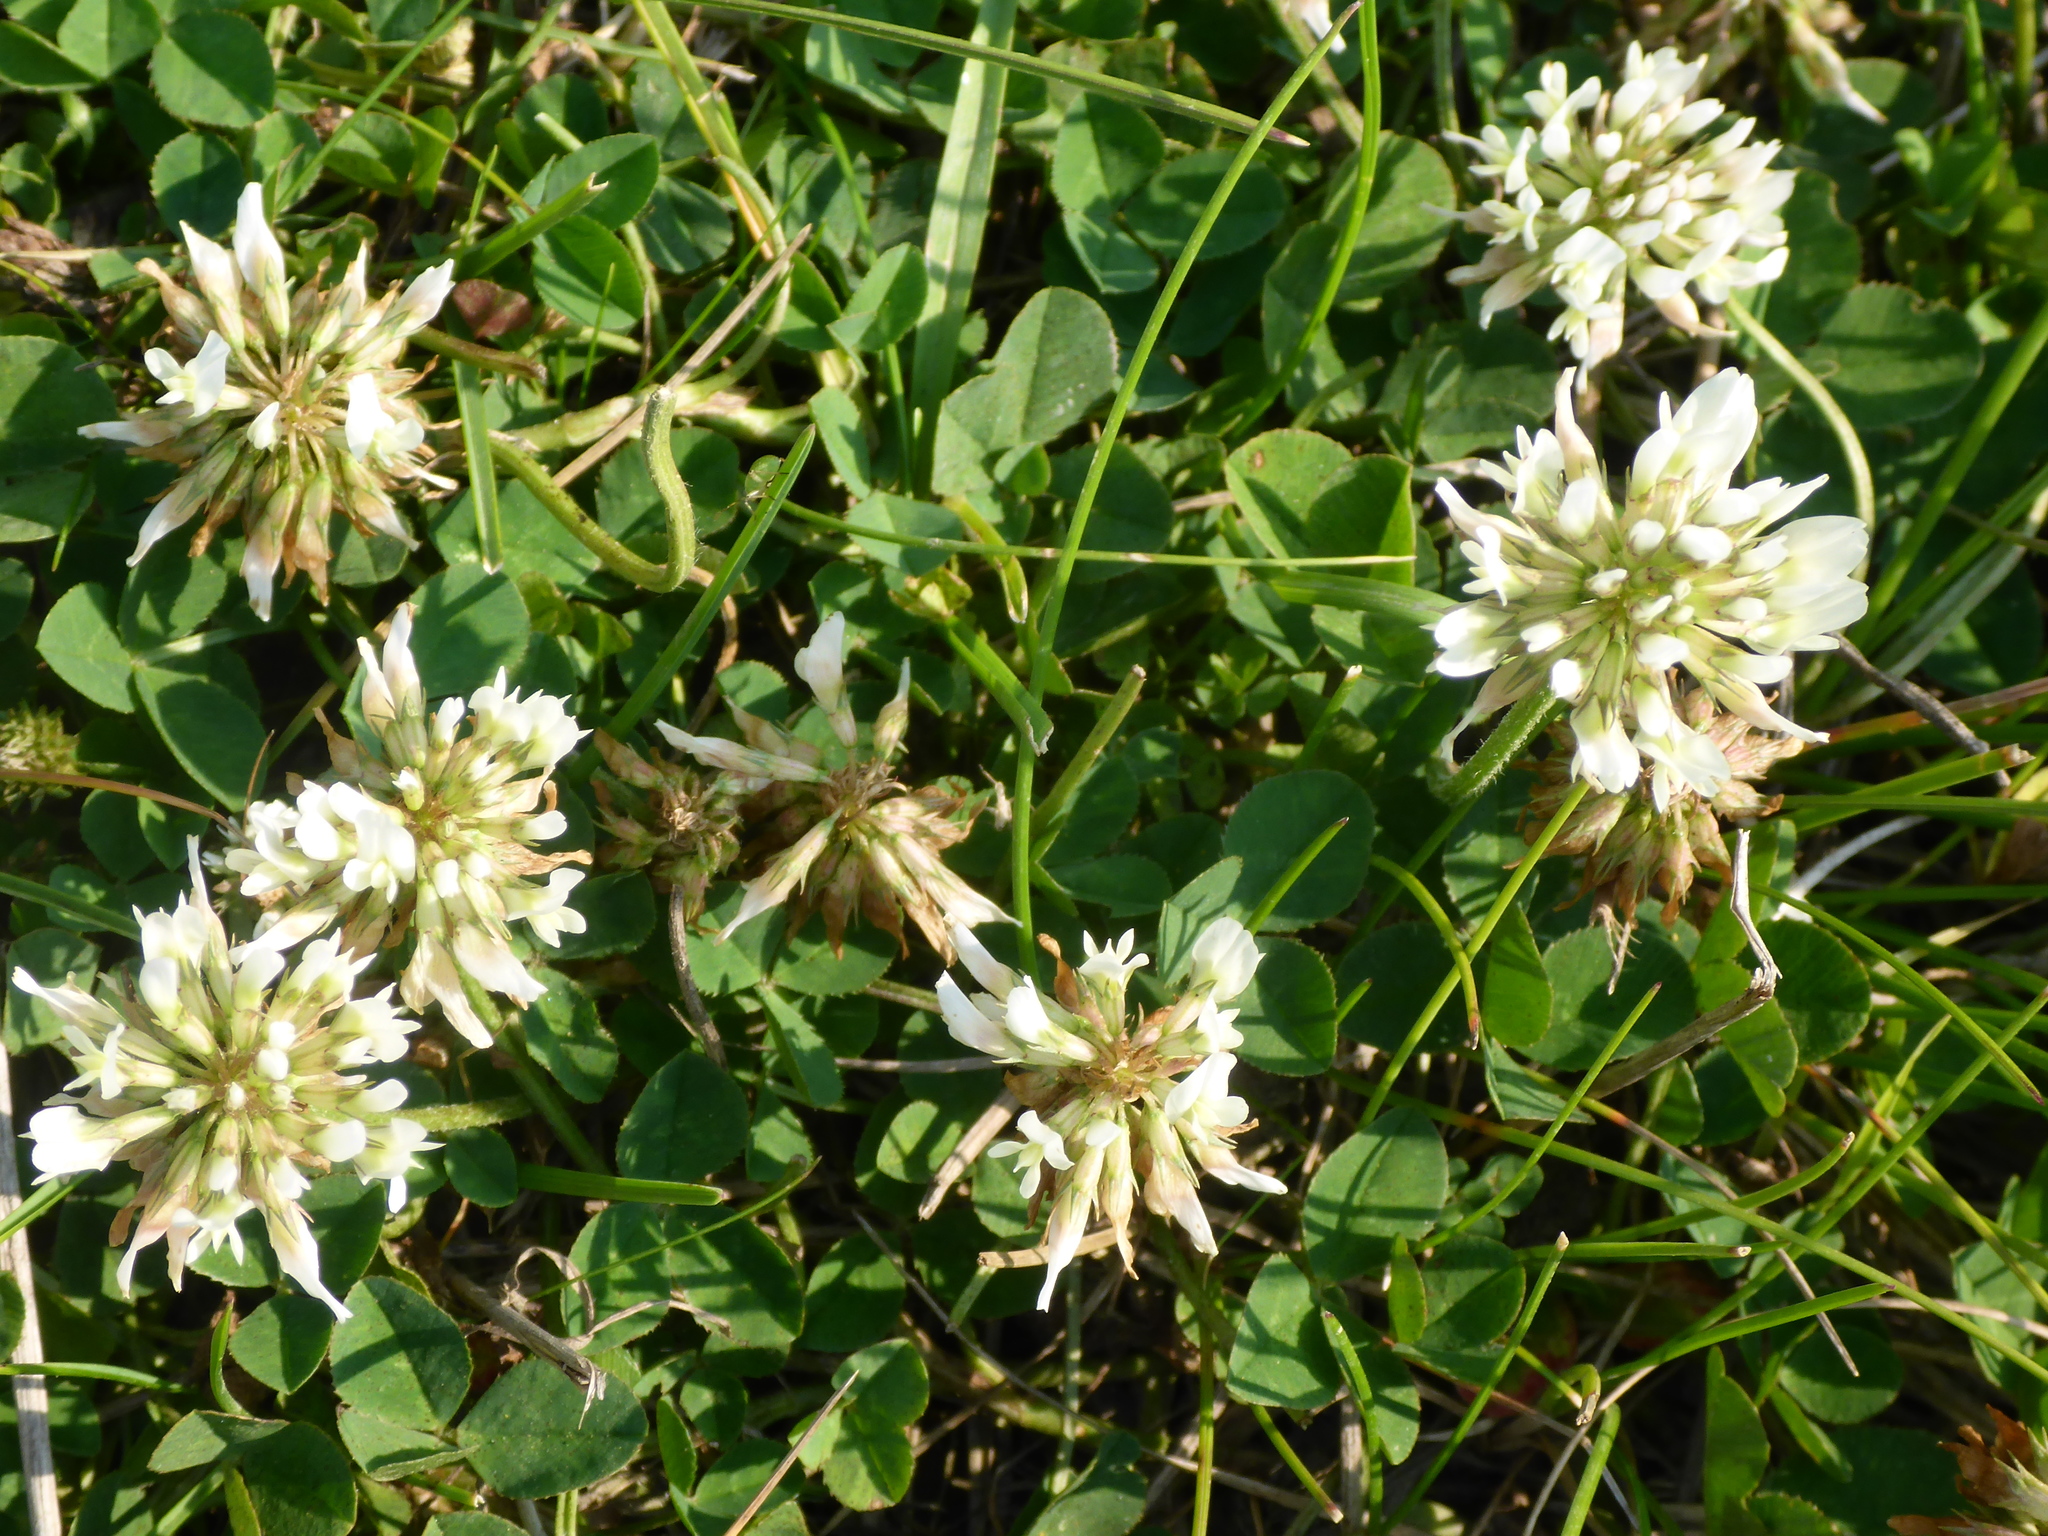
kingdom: Plantae
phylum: Tracheophyta
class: Magnoliopsida
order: Fabales
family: Fabaceae
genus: Trifolium
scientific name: Trifolium repens
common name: White clover
